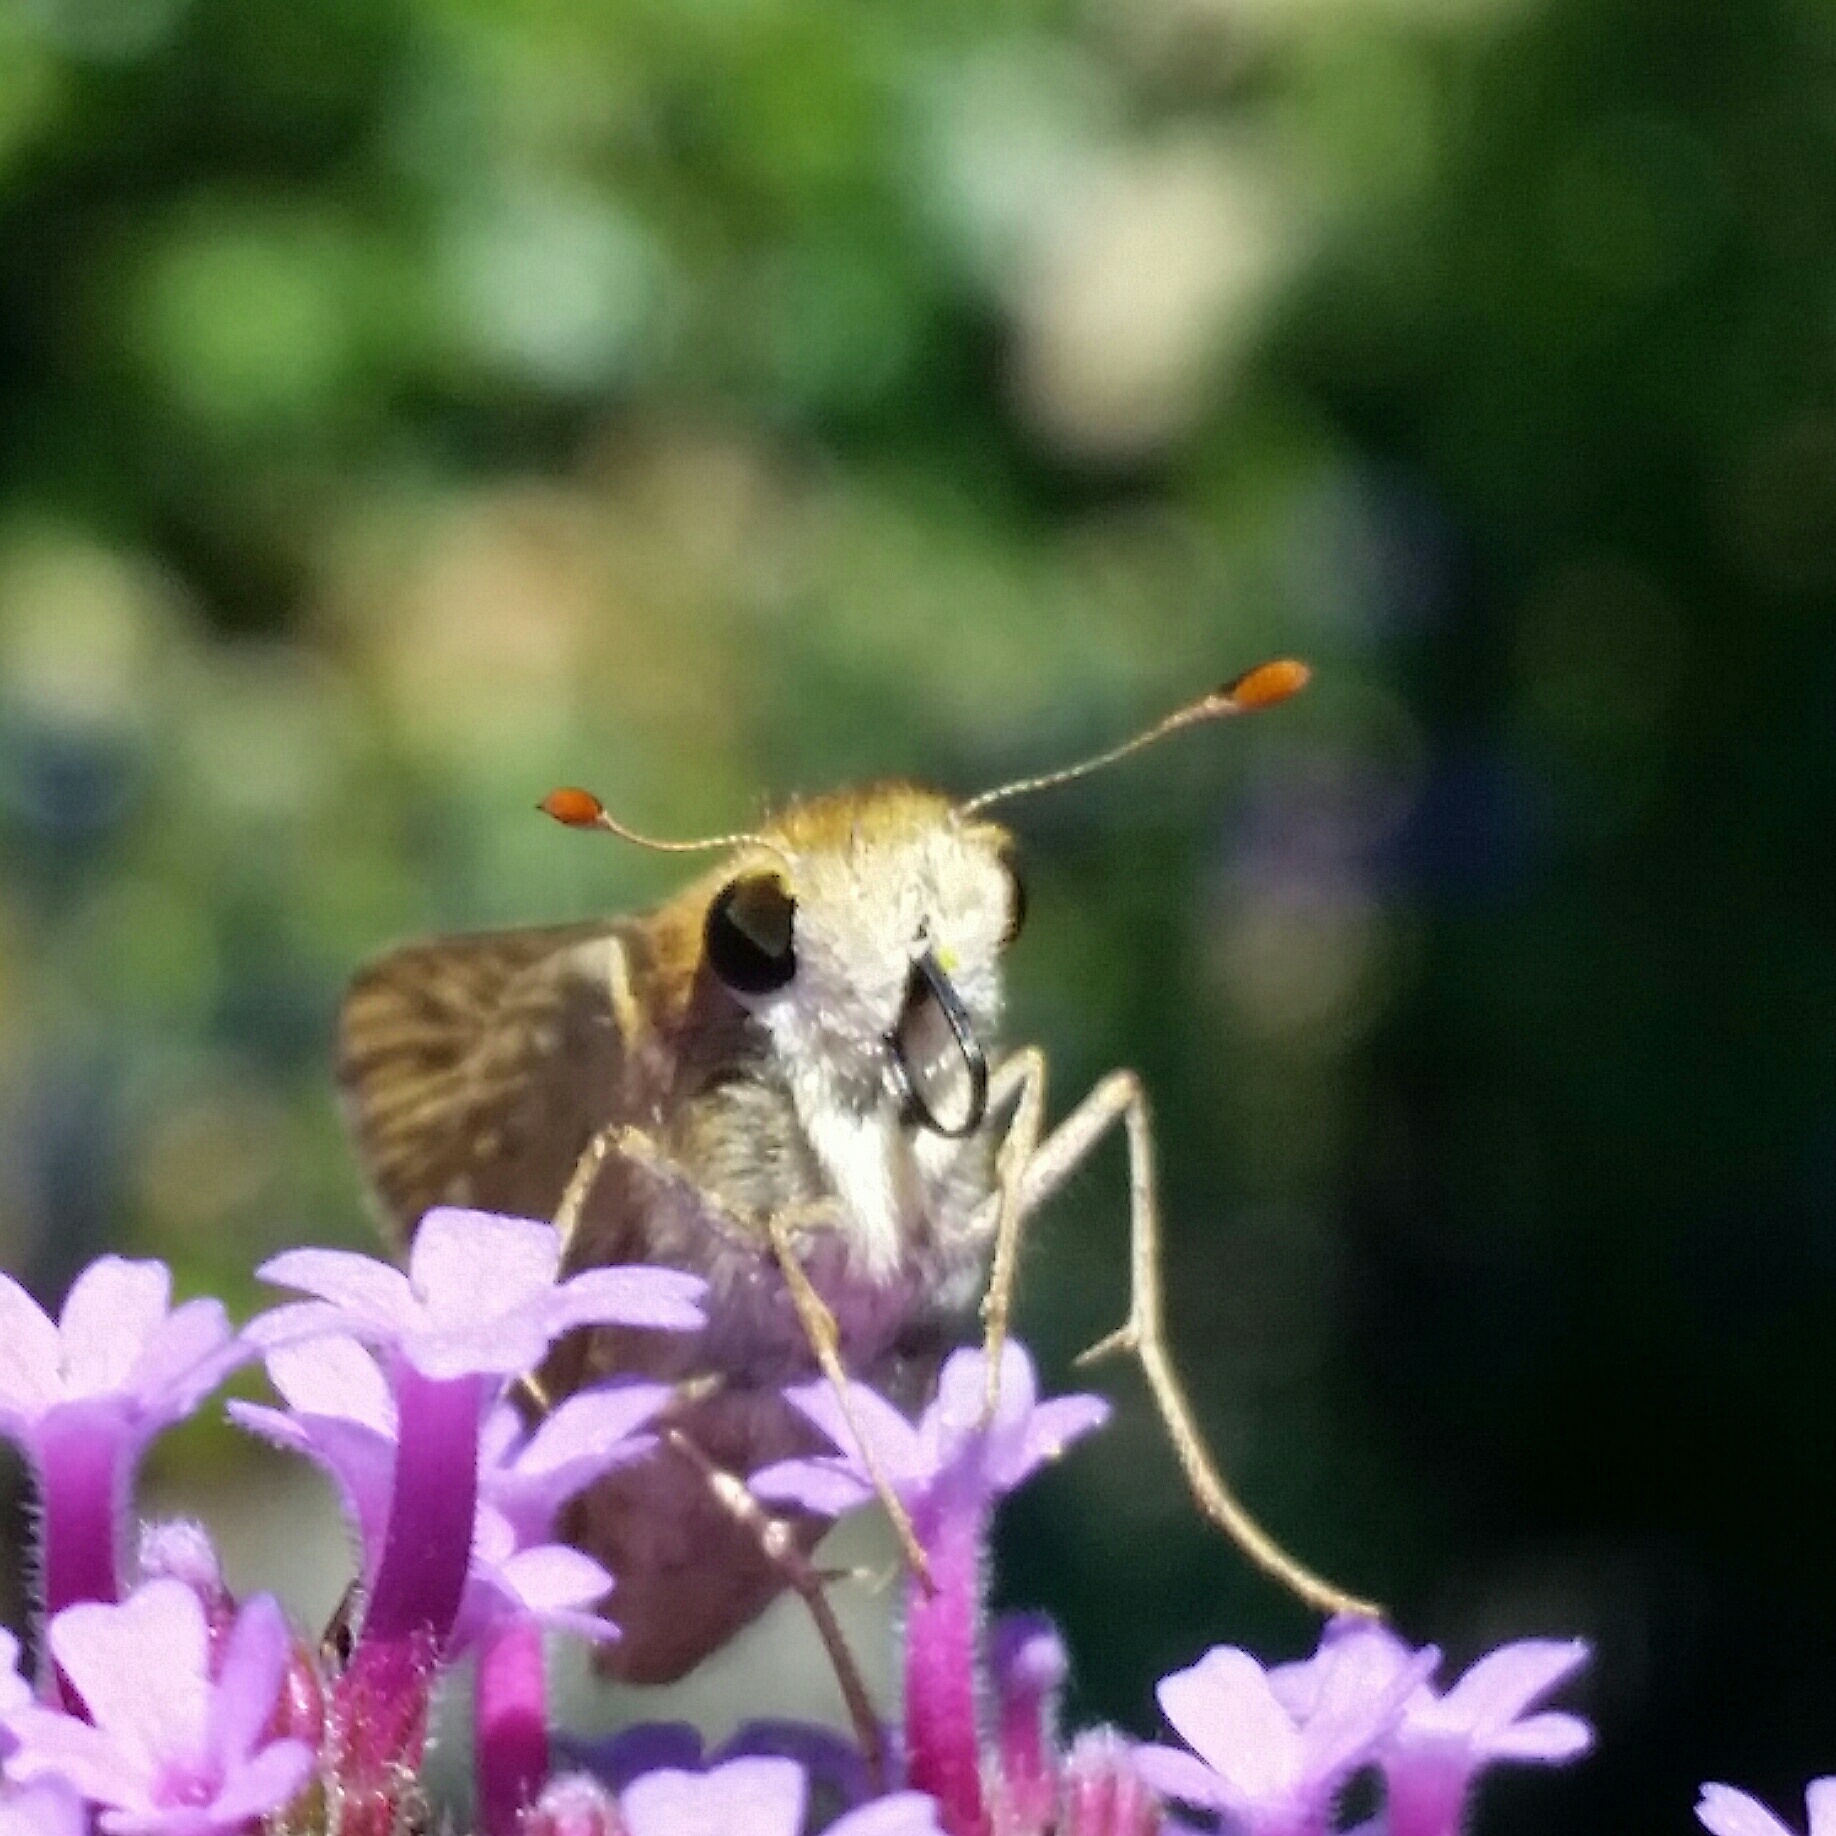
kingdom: Animalia
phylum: Arthropoda
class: Insecta
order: Lepidoptera
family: Hesperiidae
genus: Hylephila
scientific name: Hylephila phyleus
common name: Fiery skipper
